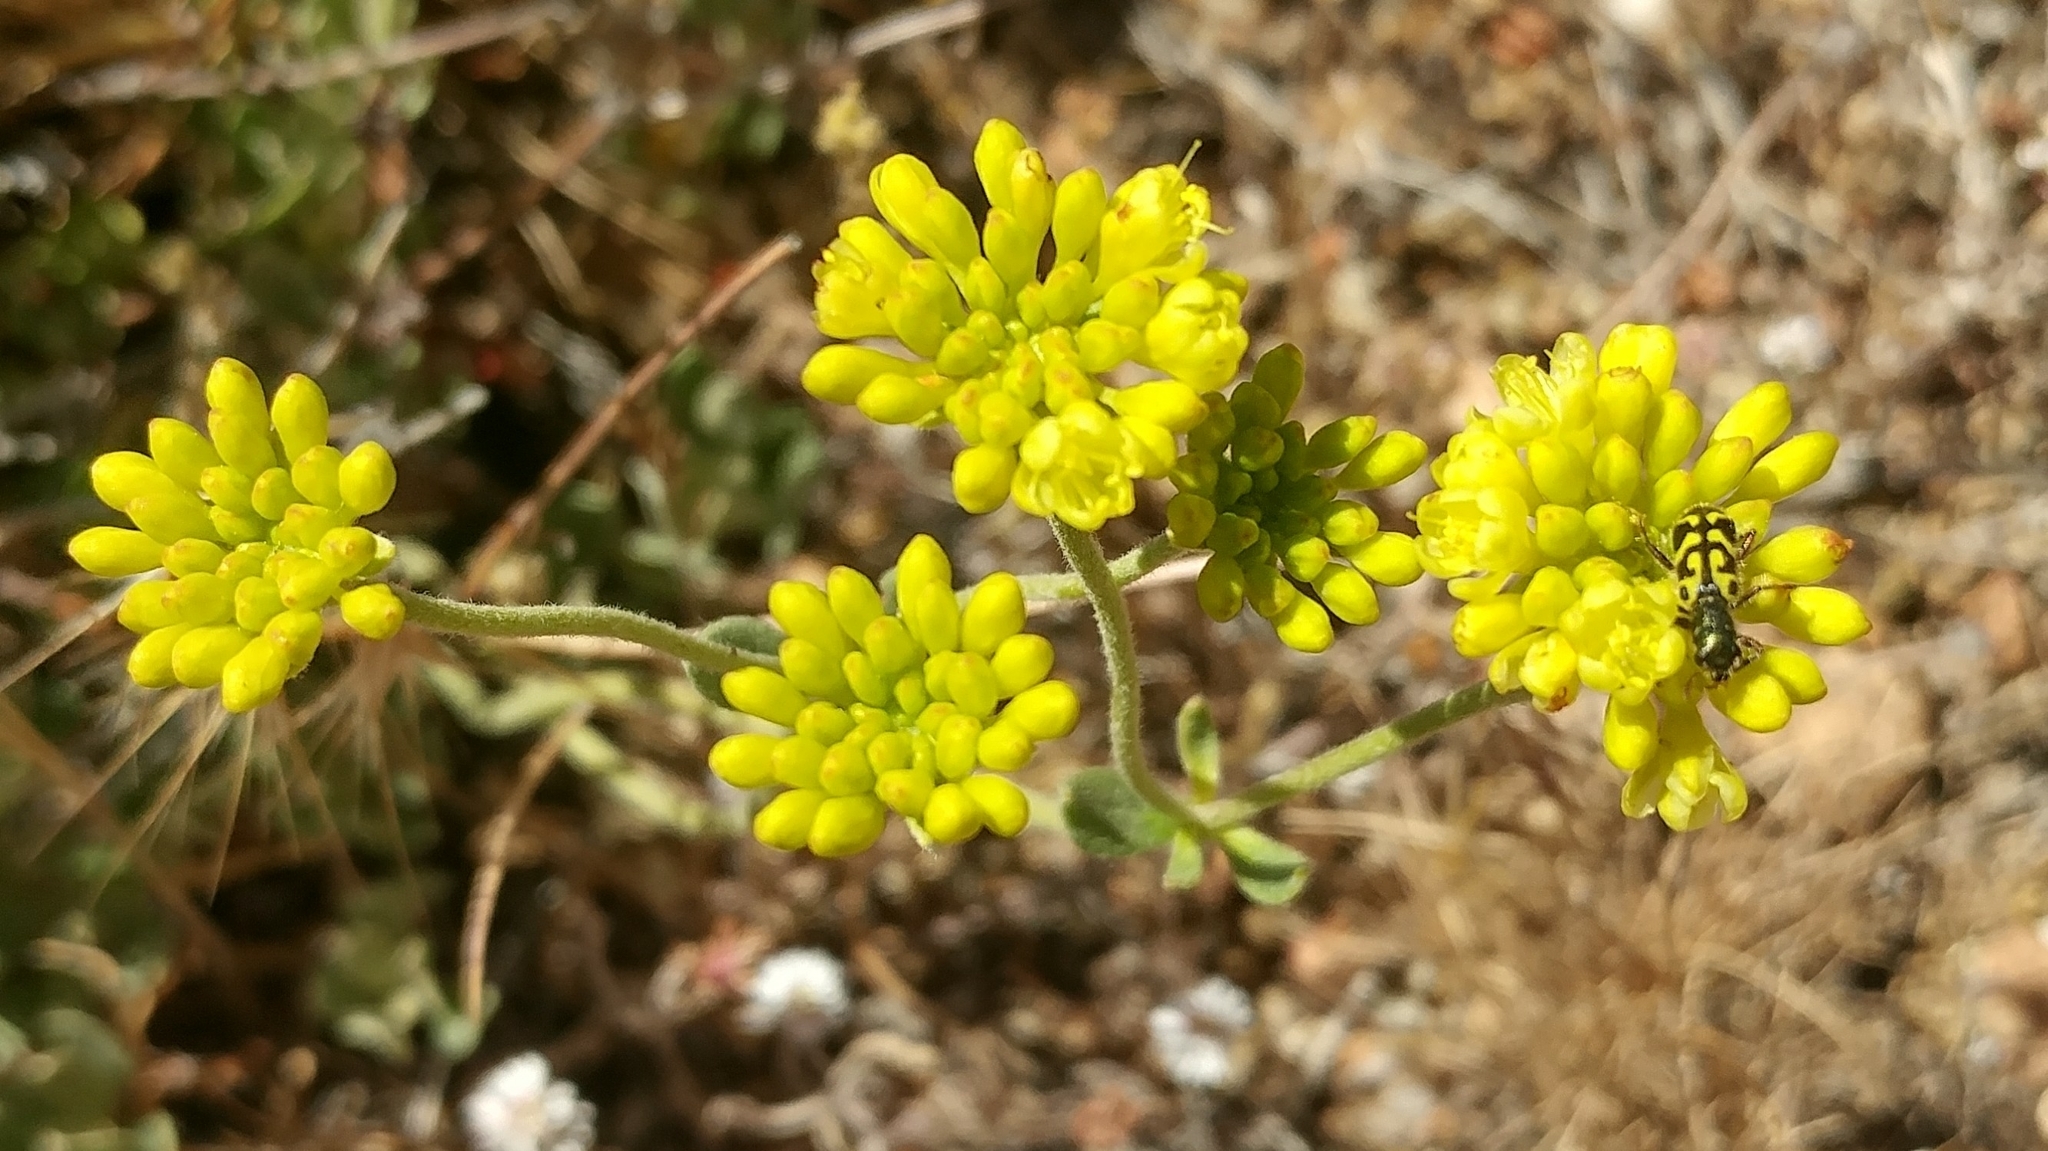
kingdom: Animalia
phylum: Arthropoda
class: Insecta
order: Coleoptera
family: Cleridae
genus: Trichodes
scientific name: Trichodes ornatus
